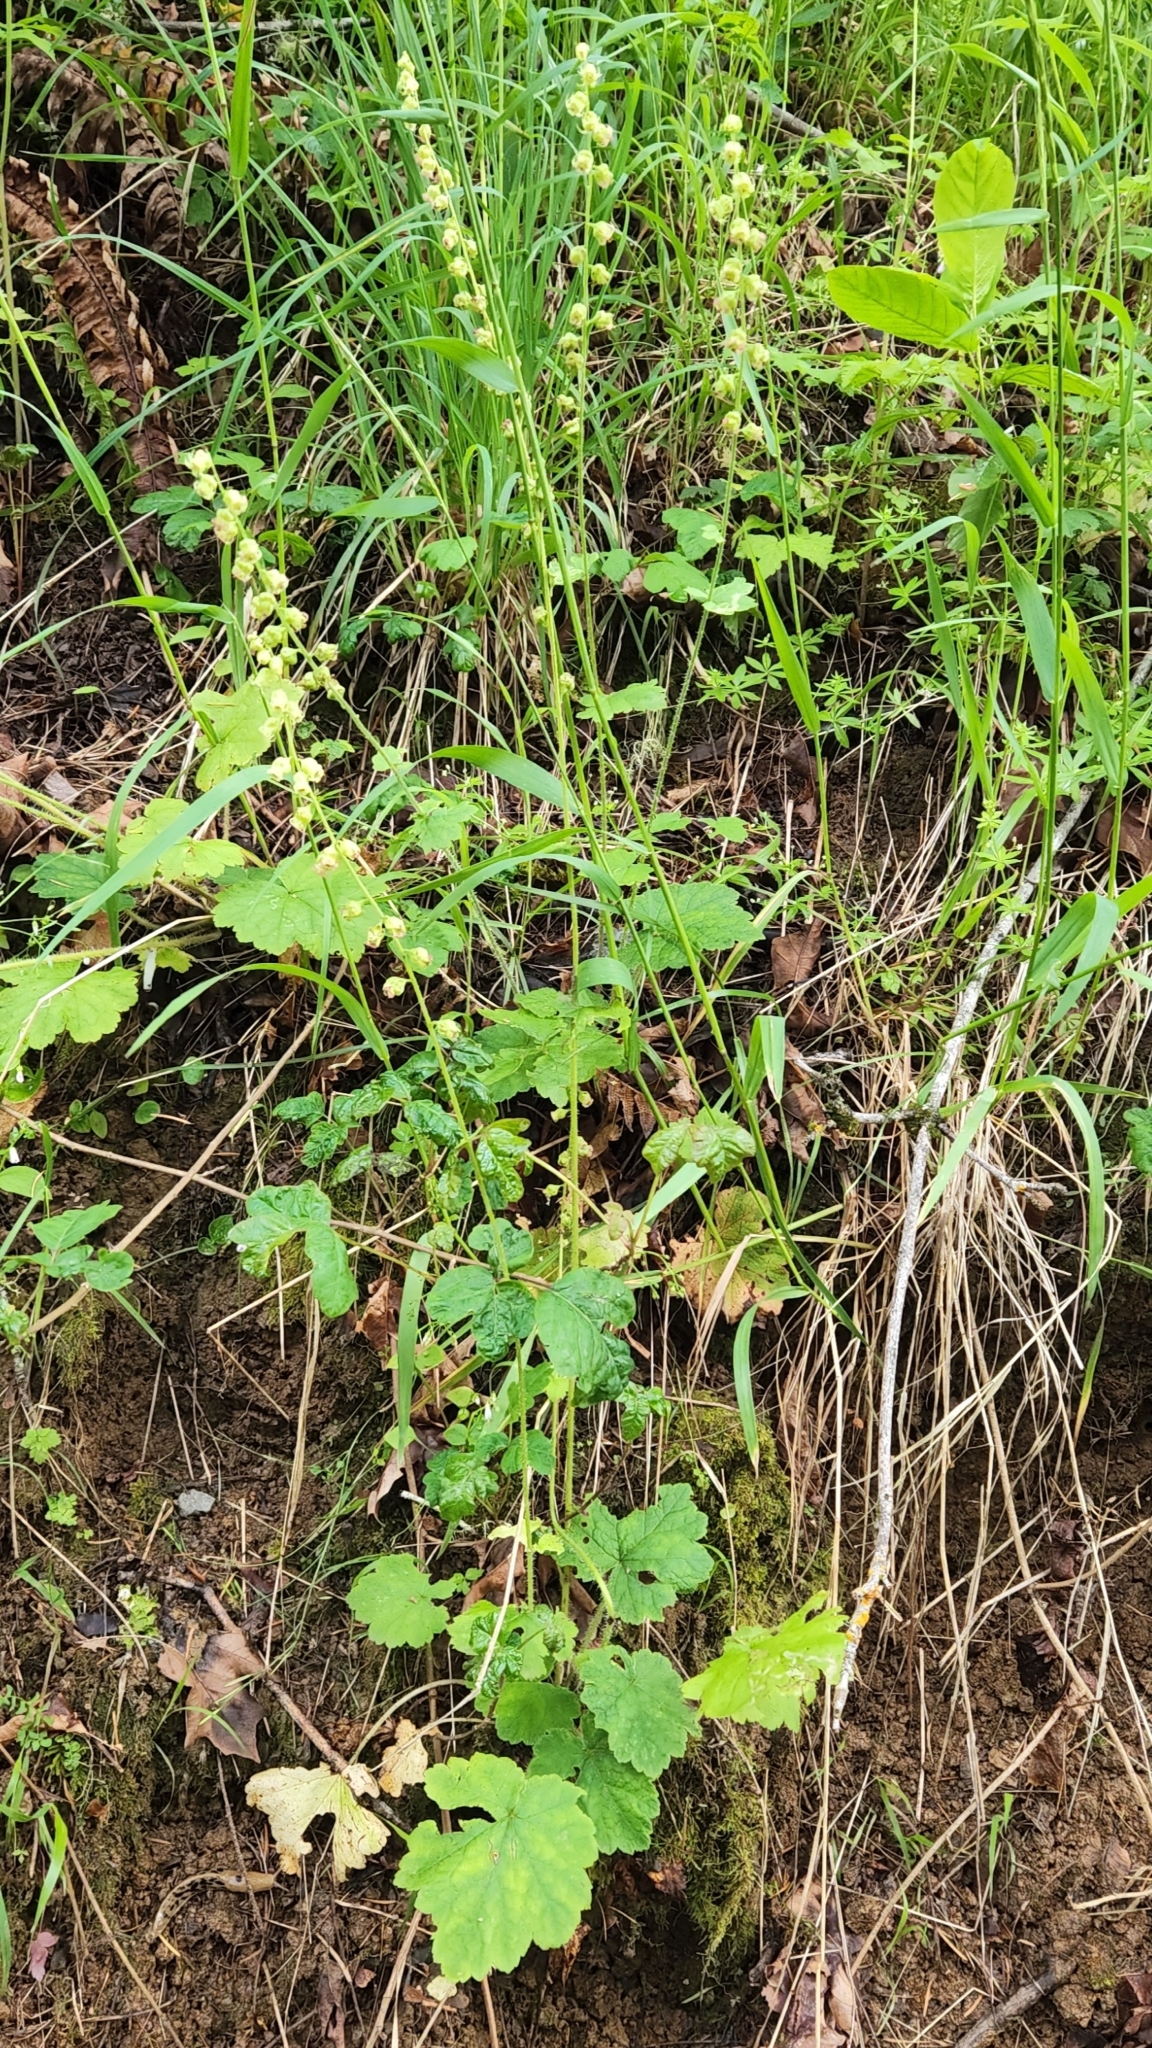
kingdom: Plantae
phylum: Tracheophyta
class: Magnoliopsida
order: Saxifragales
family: Saxifragaceae
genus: Tellima
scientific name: Tellima grandiflora
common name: Fringecups
